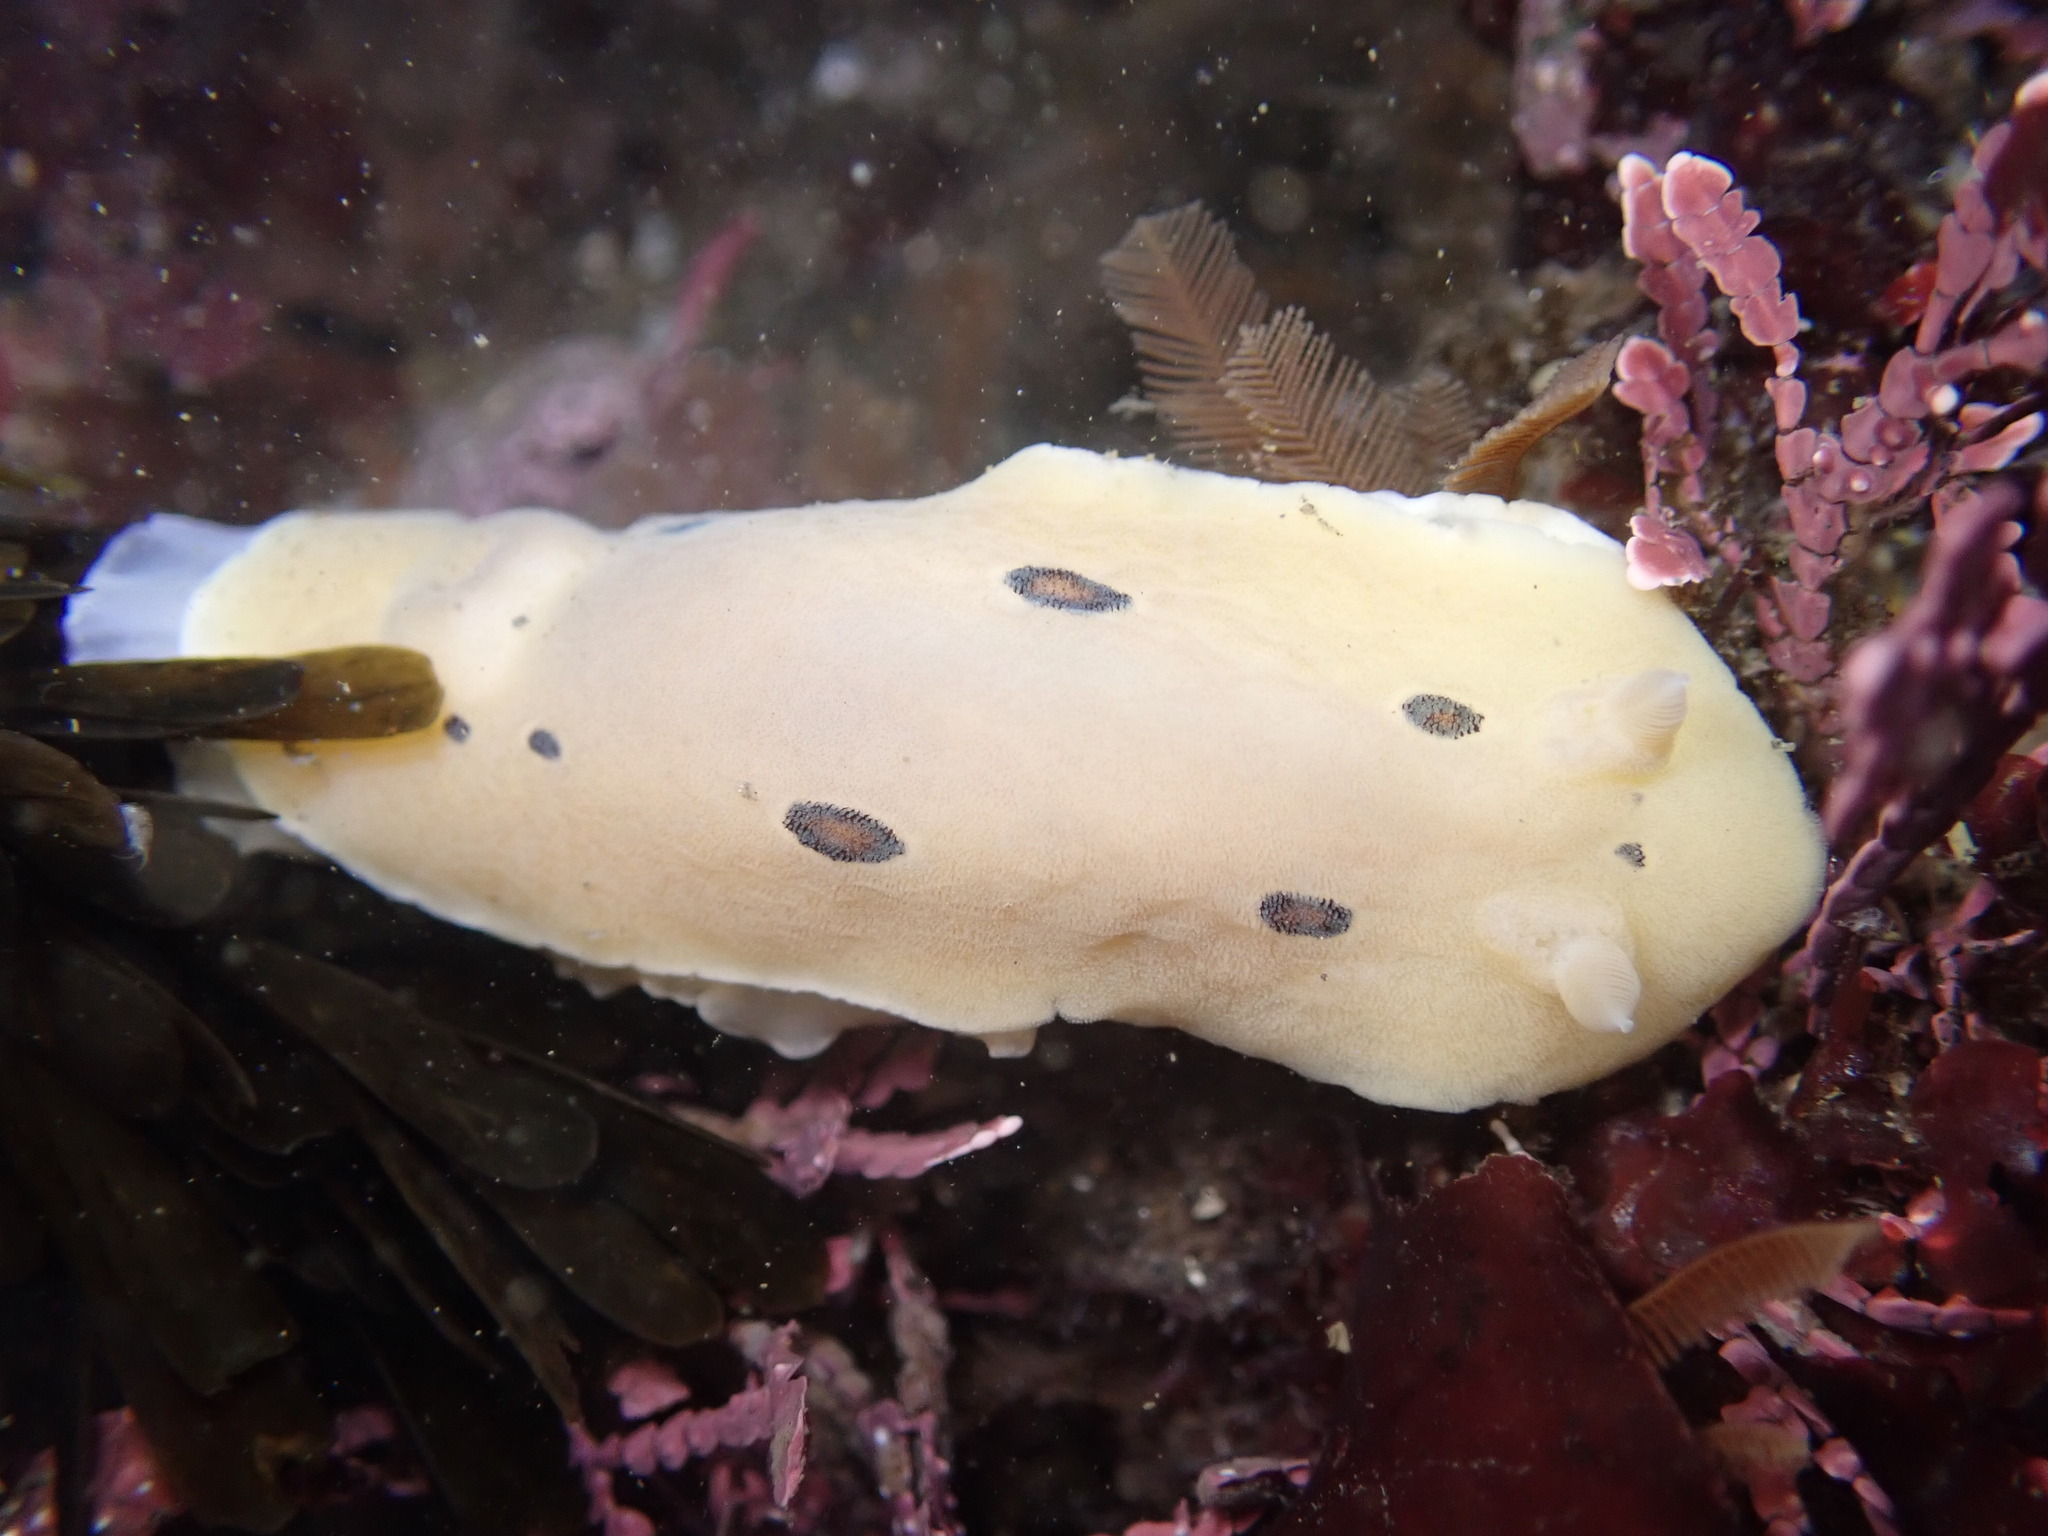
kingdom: Animalia
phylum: Mollusca
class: Gastropoda
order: Nudibranchia
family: Discodorididae
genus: Diaulula
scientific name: Diaulula sandiegensis
